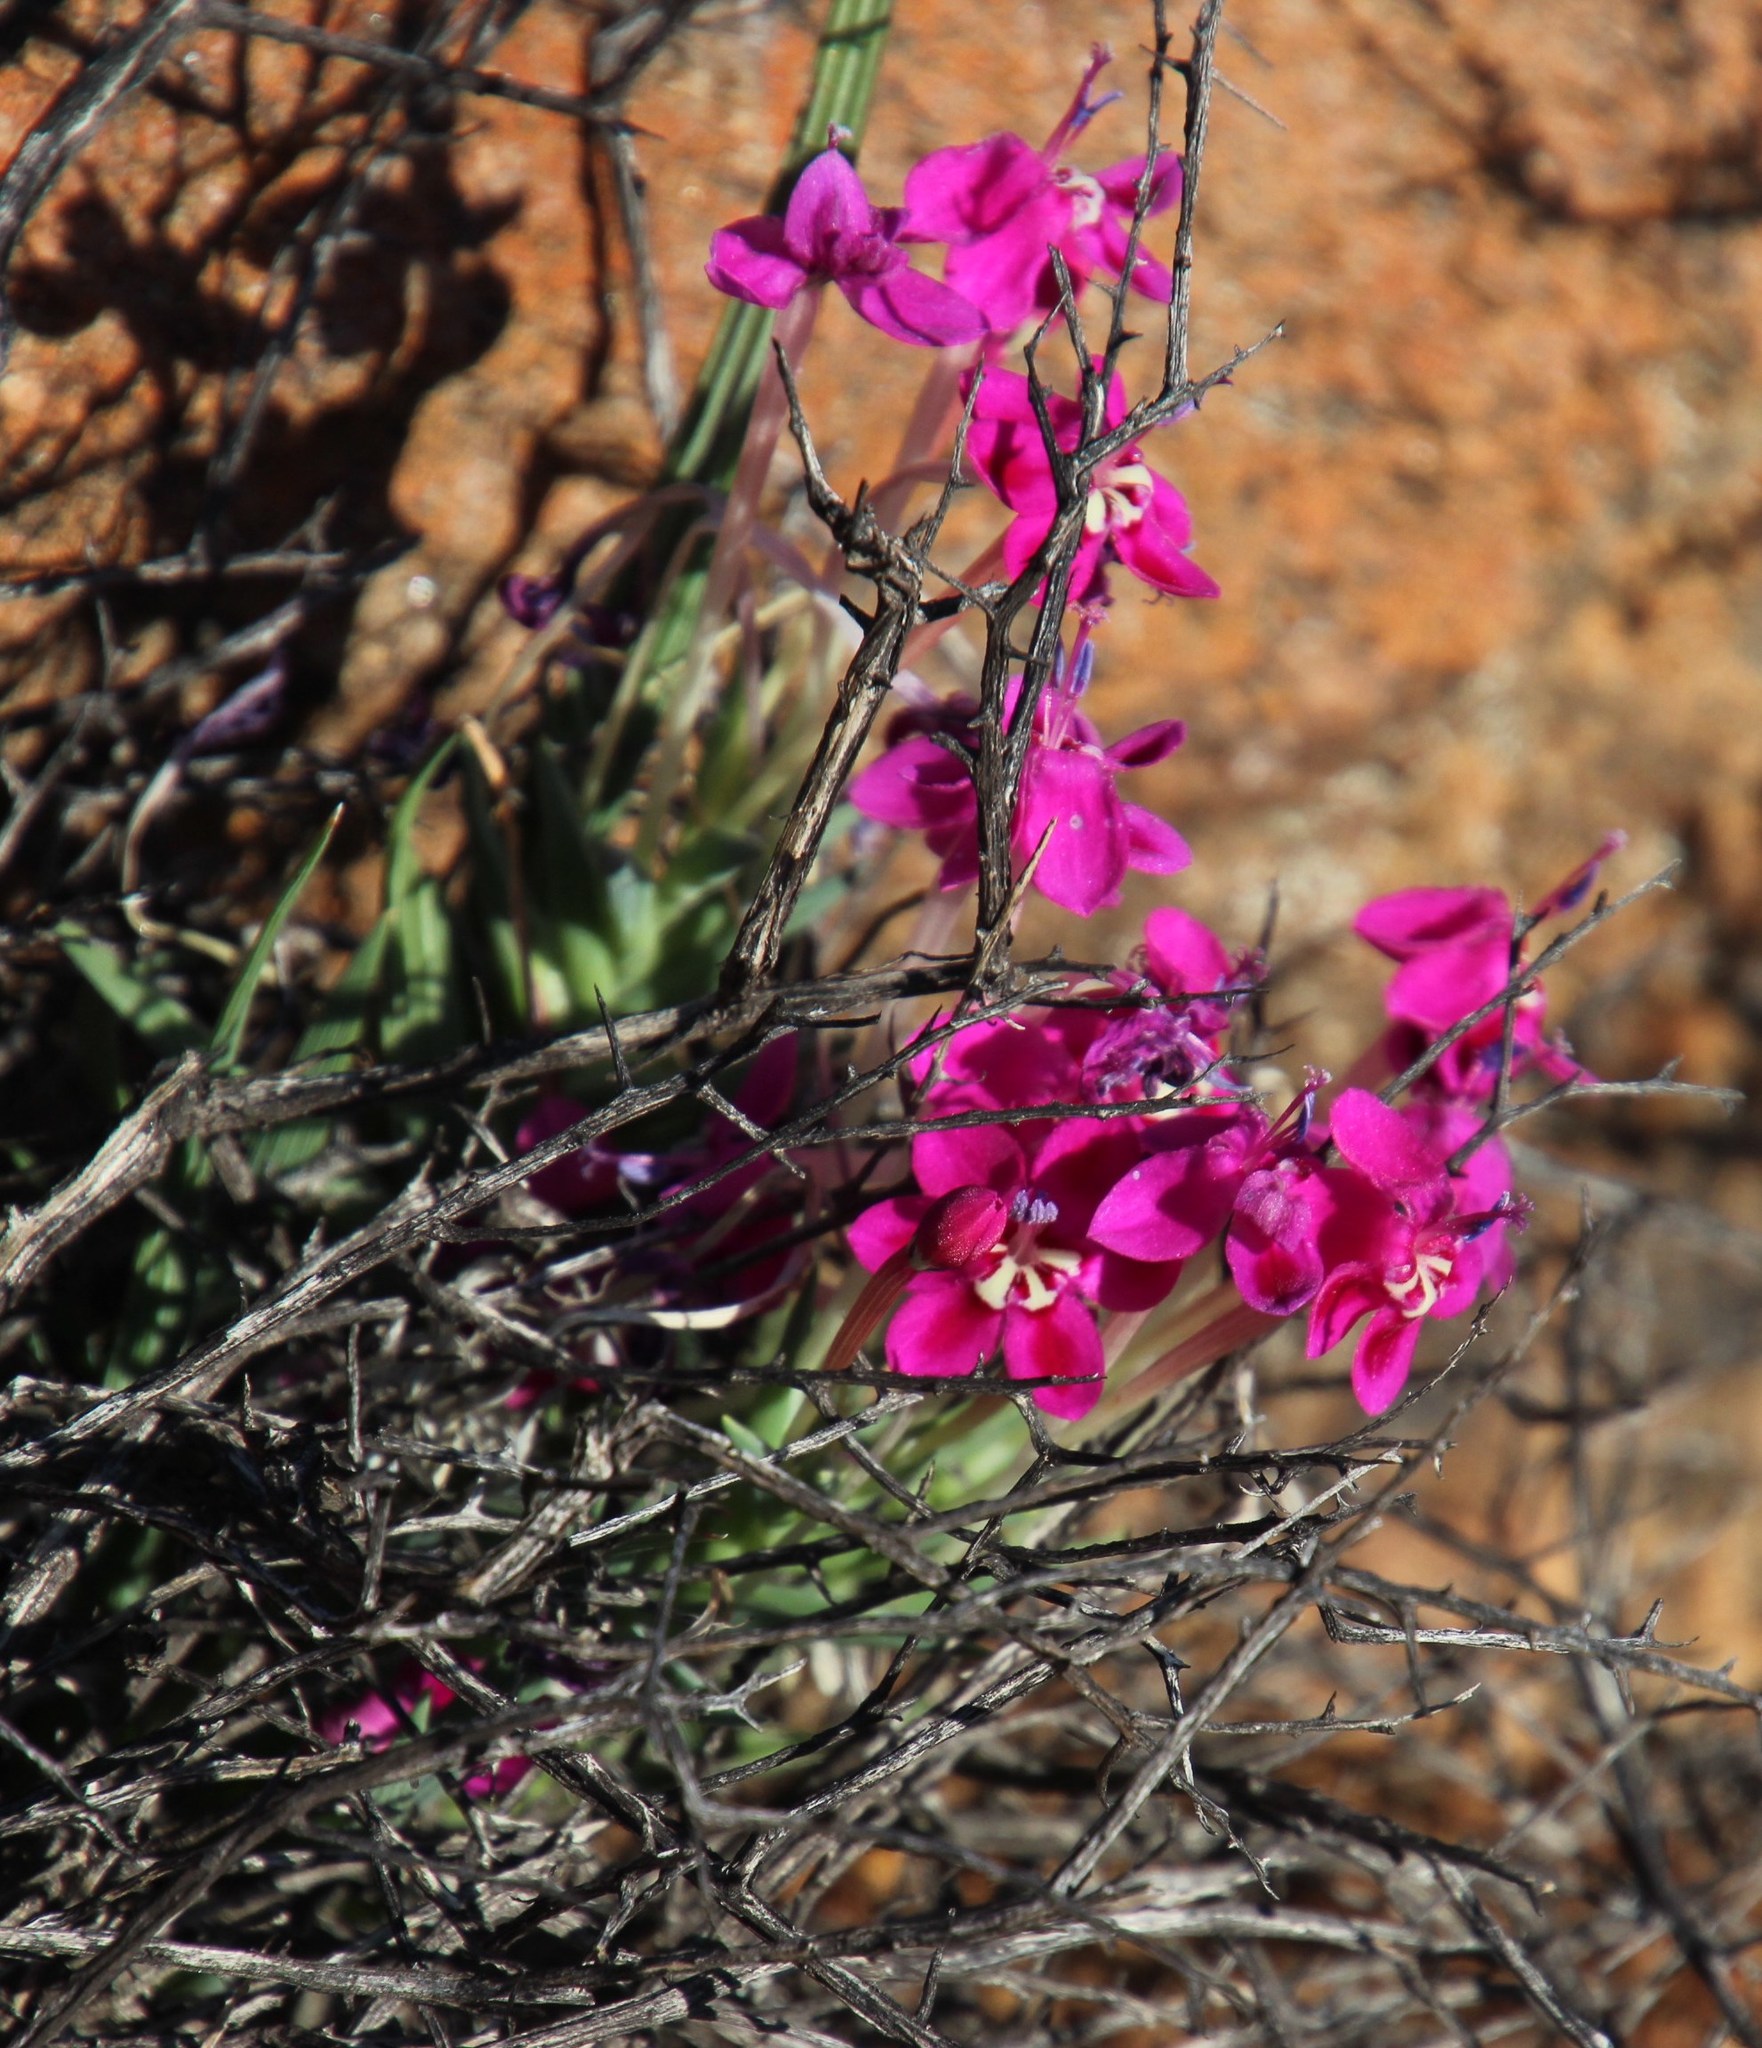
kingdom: Plantae
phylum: Tracheophyta
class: Liliopsida
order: Asparagales
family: Iridaceae
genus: Lapeirousia
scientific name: Lapeirousia silenoides
